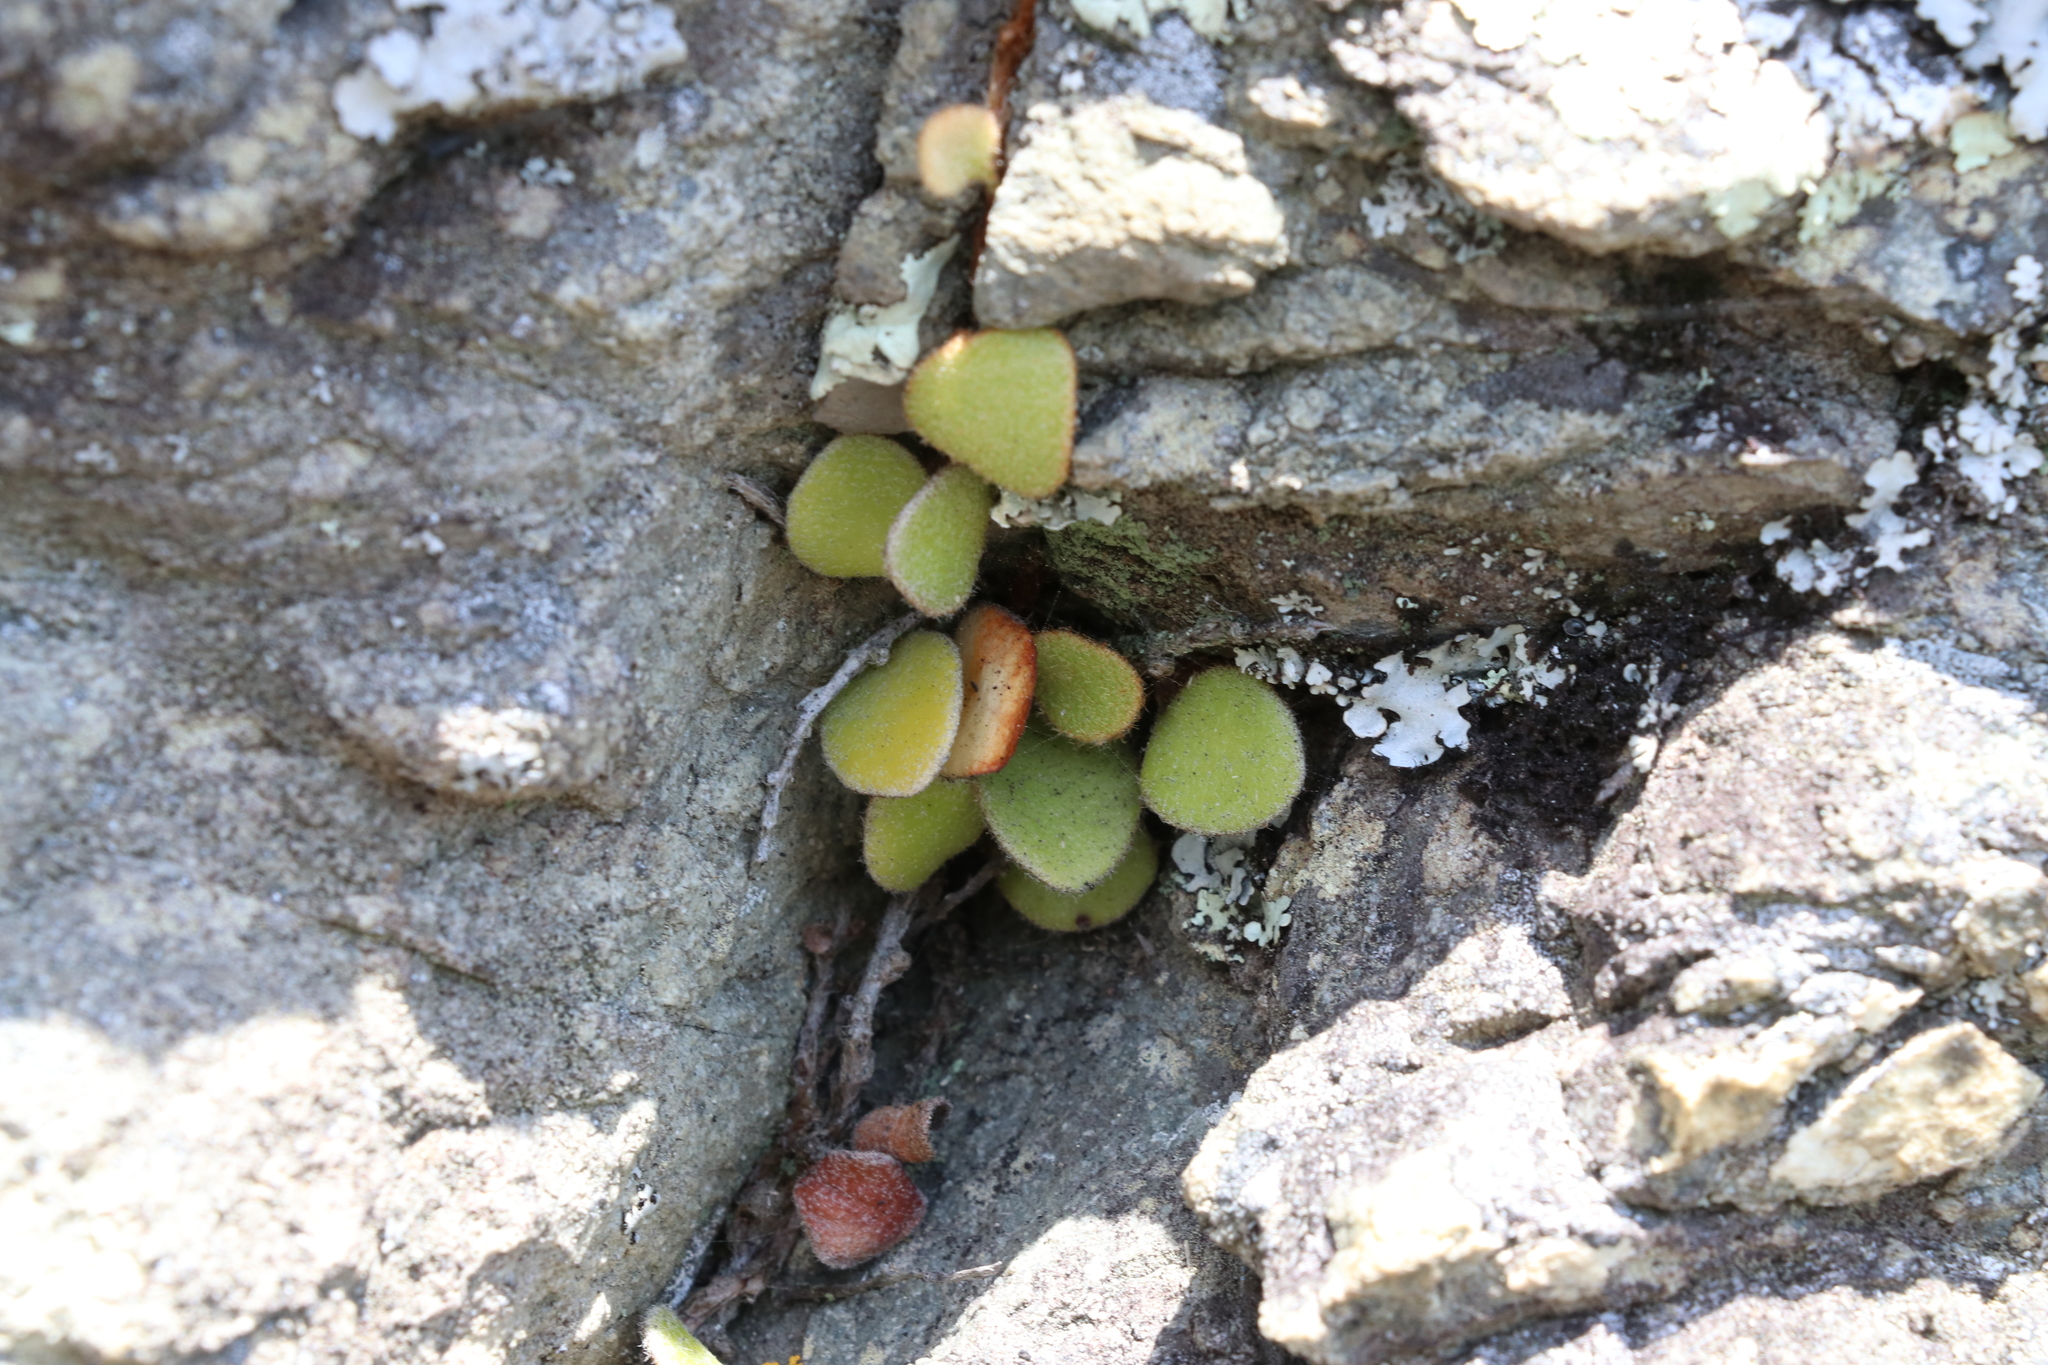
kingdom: Plantae
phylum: Tracheophyta
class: Polypodiopsida
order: Polypodiales
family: Polypodiaceae
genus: Pyrrosia
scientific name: Pyrrosia eleagnifolia
